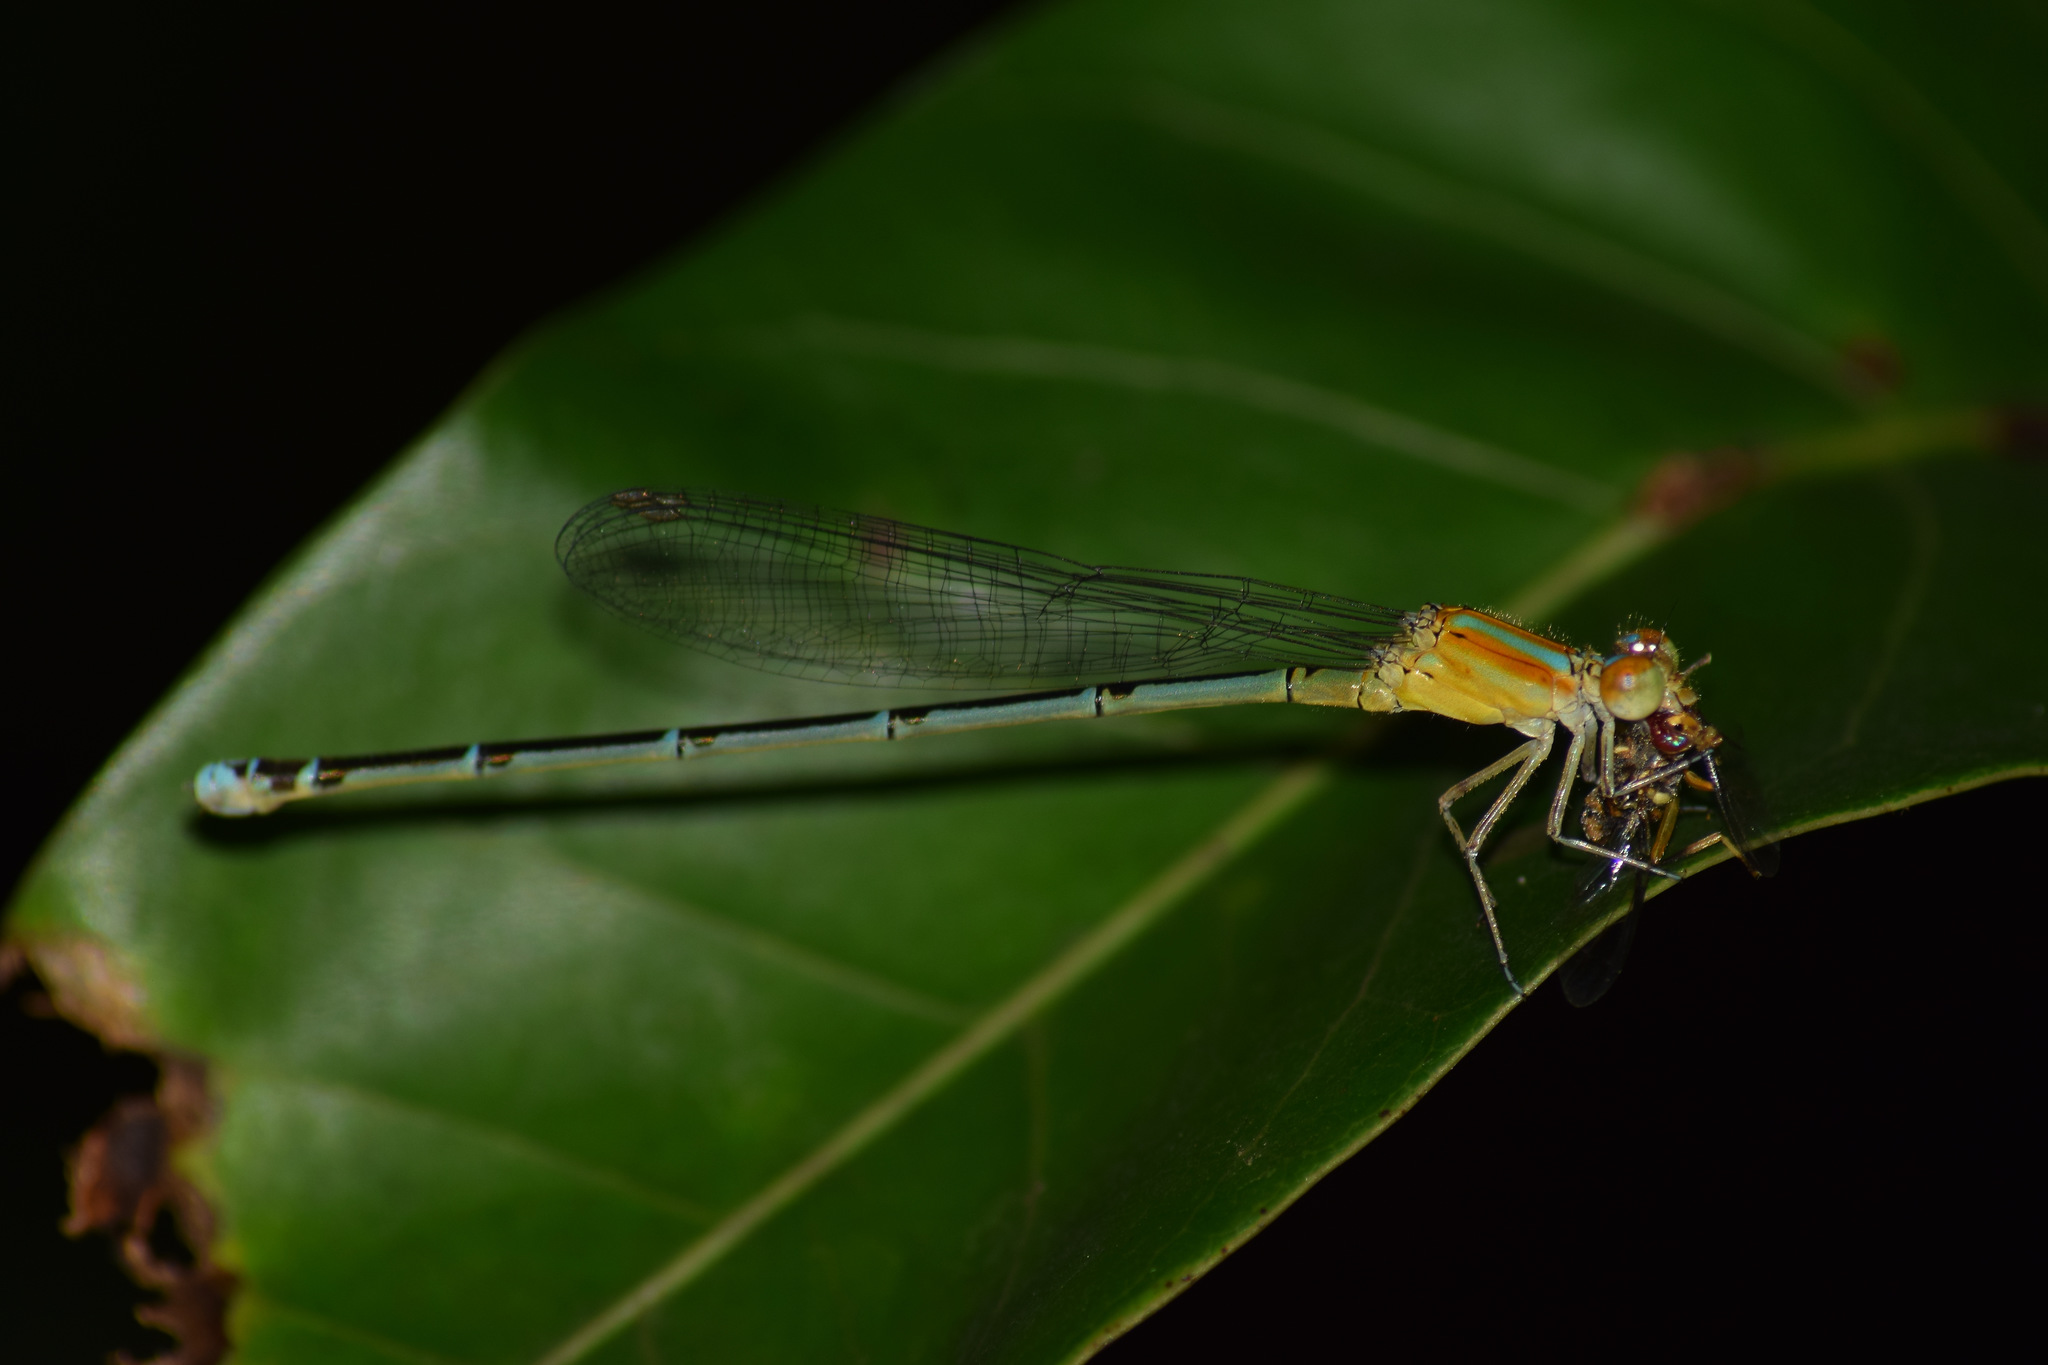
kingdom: Animalia
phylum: Arthropoda
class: Insecta
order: Odonata
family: Coenagrionidae
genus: Pseudagrion
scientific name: Pseudagrion microcephalum
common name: Blue riverdamsel
